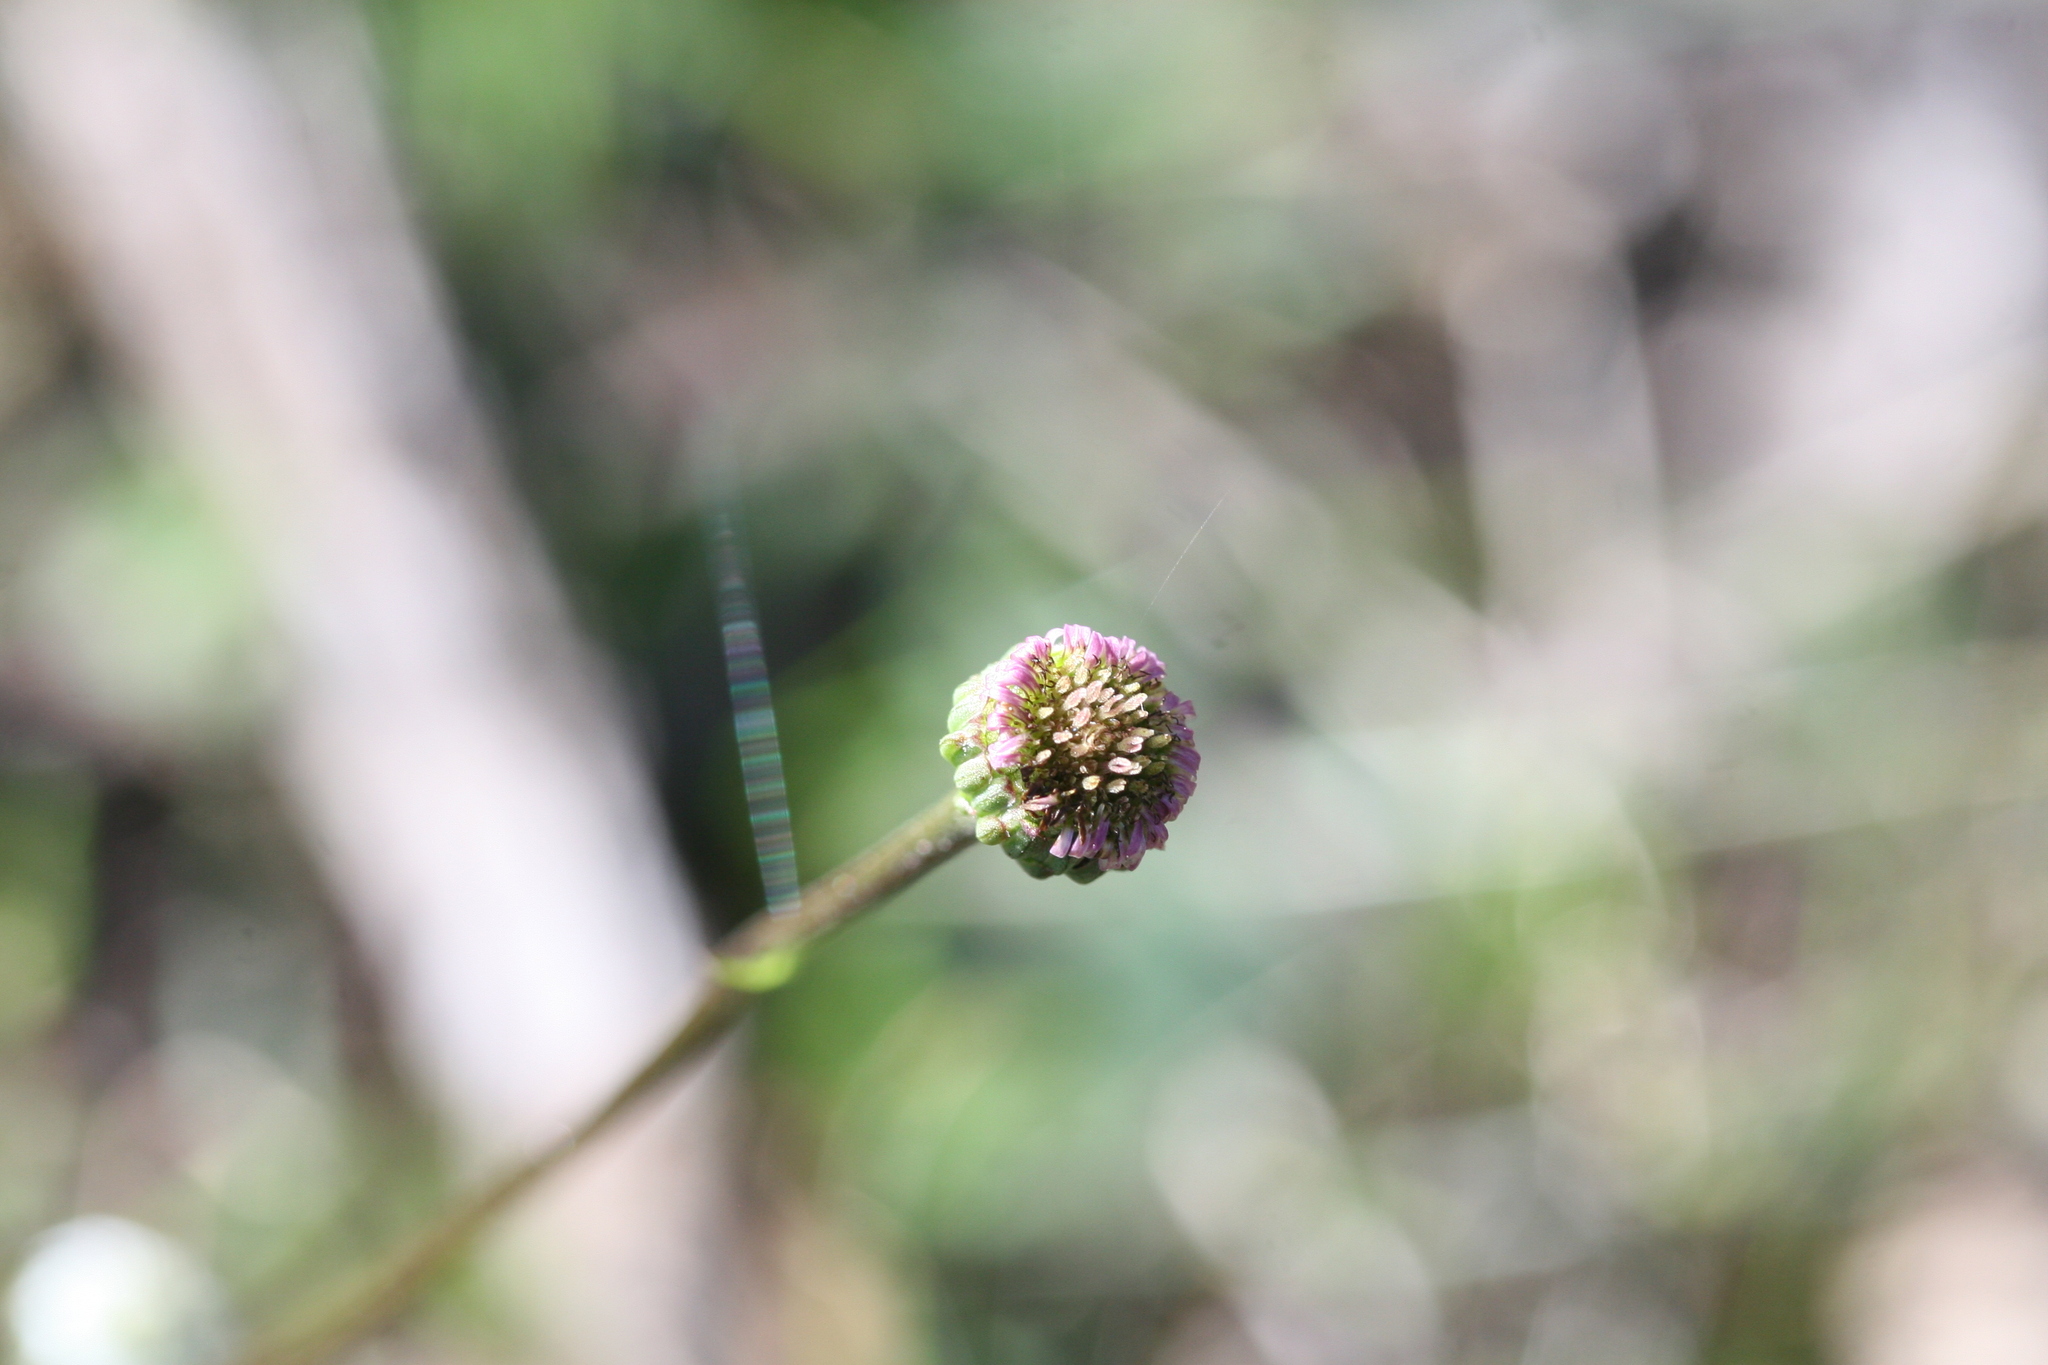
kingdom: Plantae
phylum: Tracheophyta
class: Magnoliopsida
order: Asterales
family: Asteraceae
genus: Lagenophora
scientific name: Lagenophora huegelii
